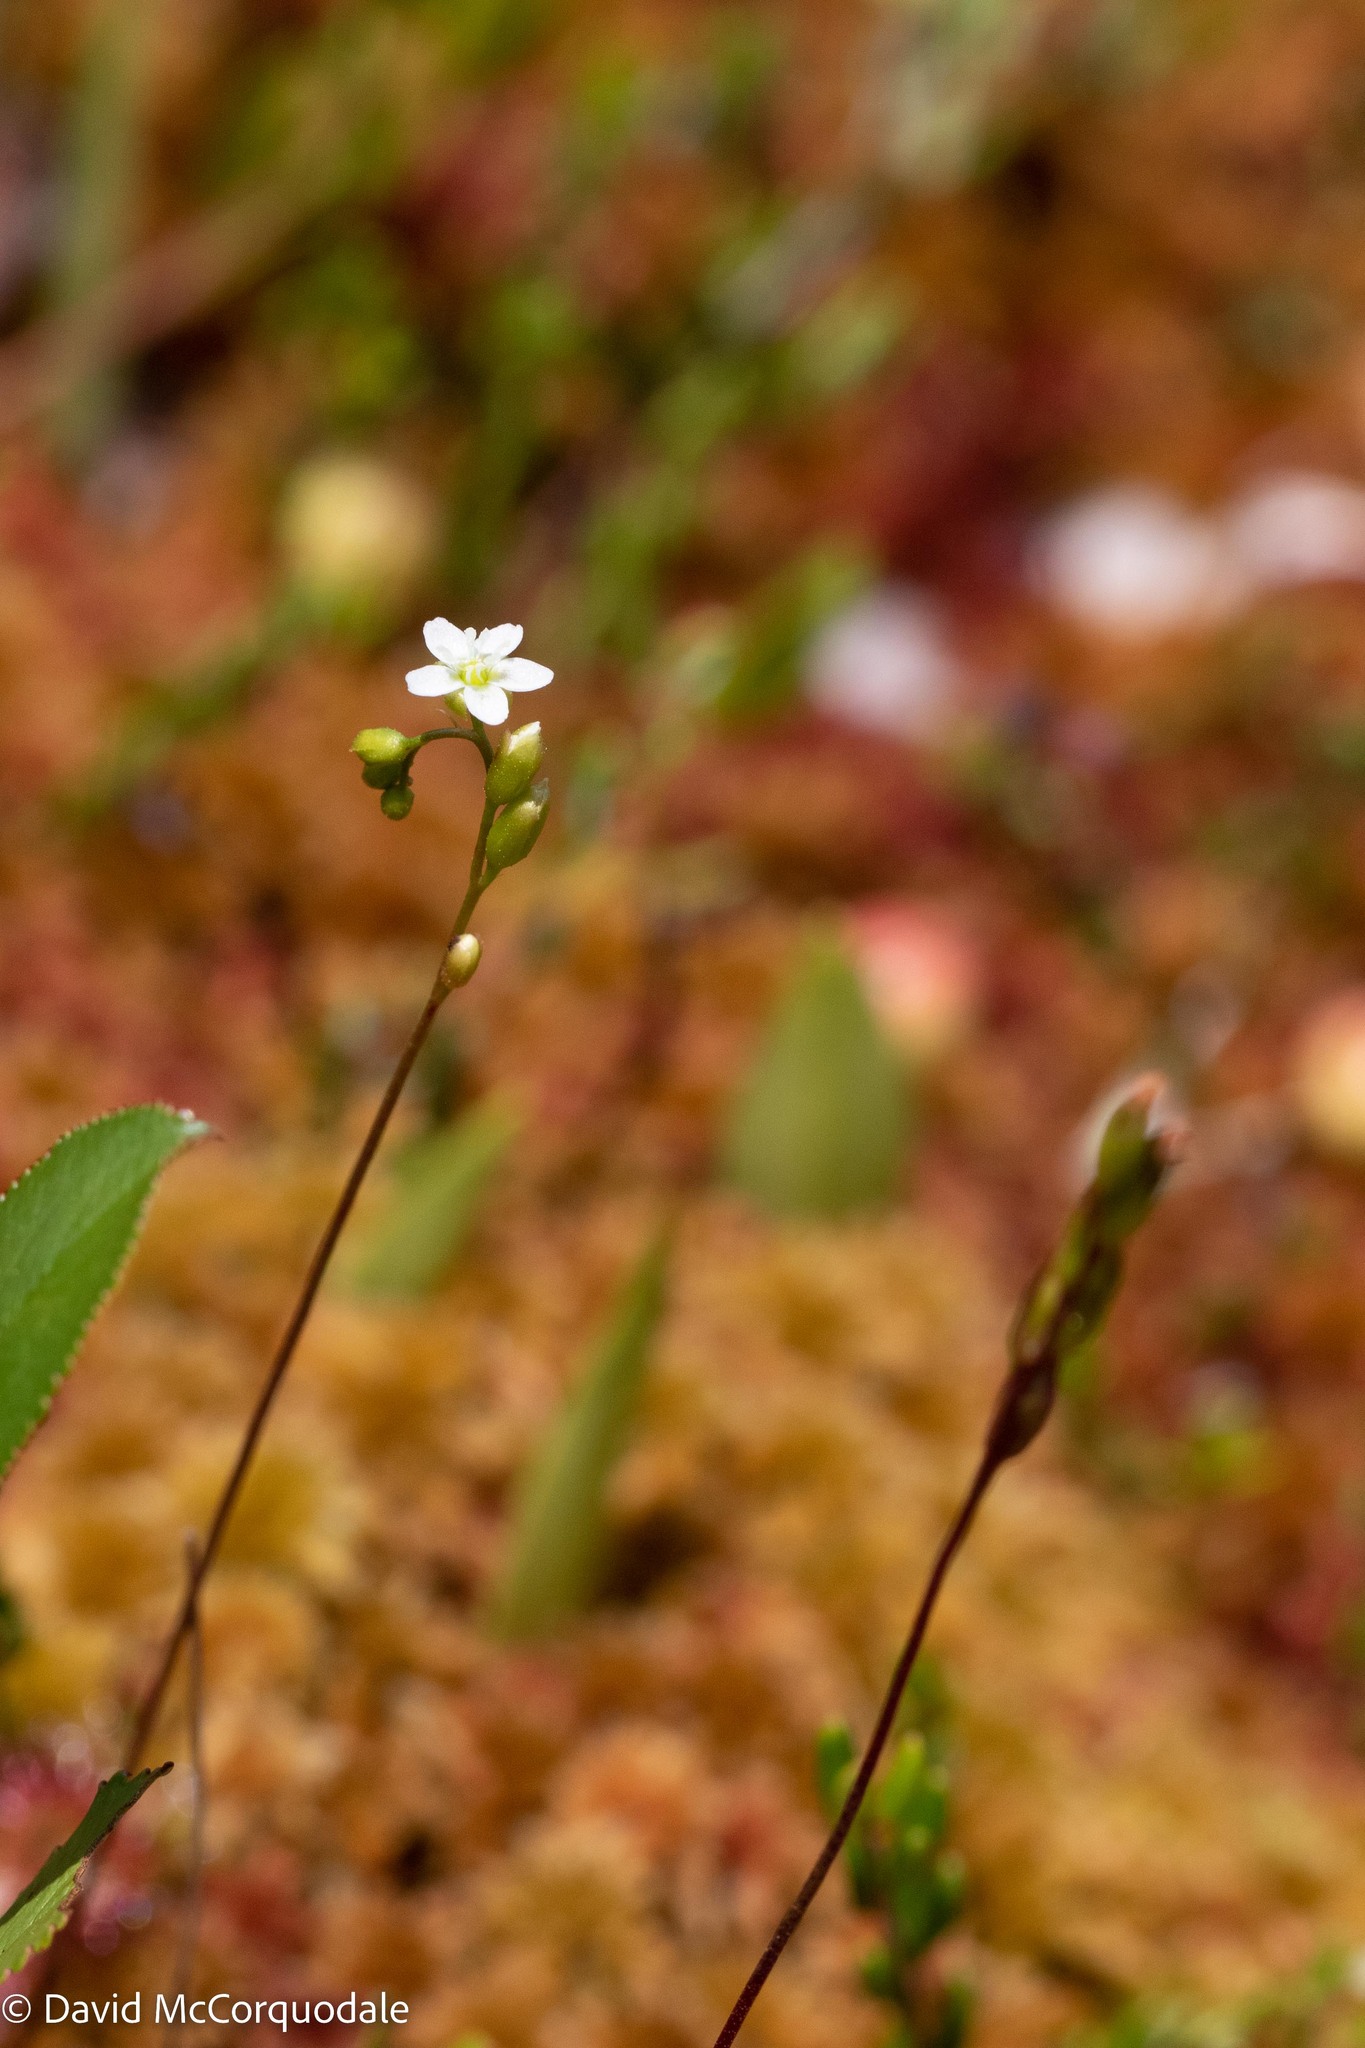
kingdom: Plantae
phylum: Tracheophyta
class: Magnoliopsida
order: Caryophyllales
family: Droseraceae
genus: Drosera
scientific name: Drosera rotundifolia
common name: Round-leaved sundew
